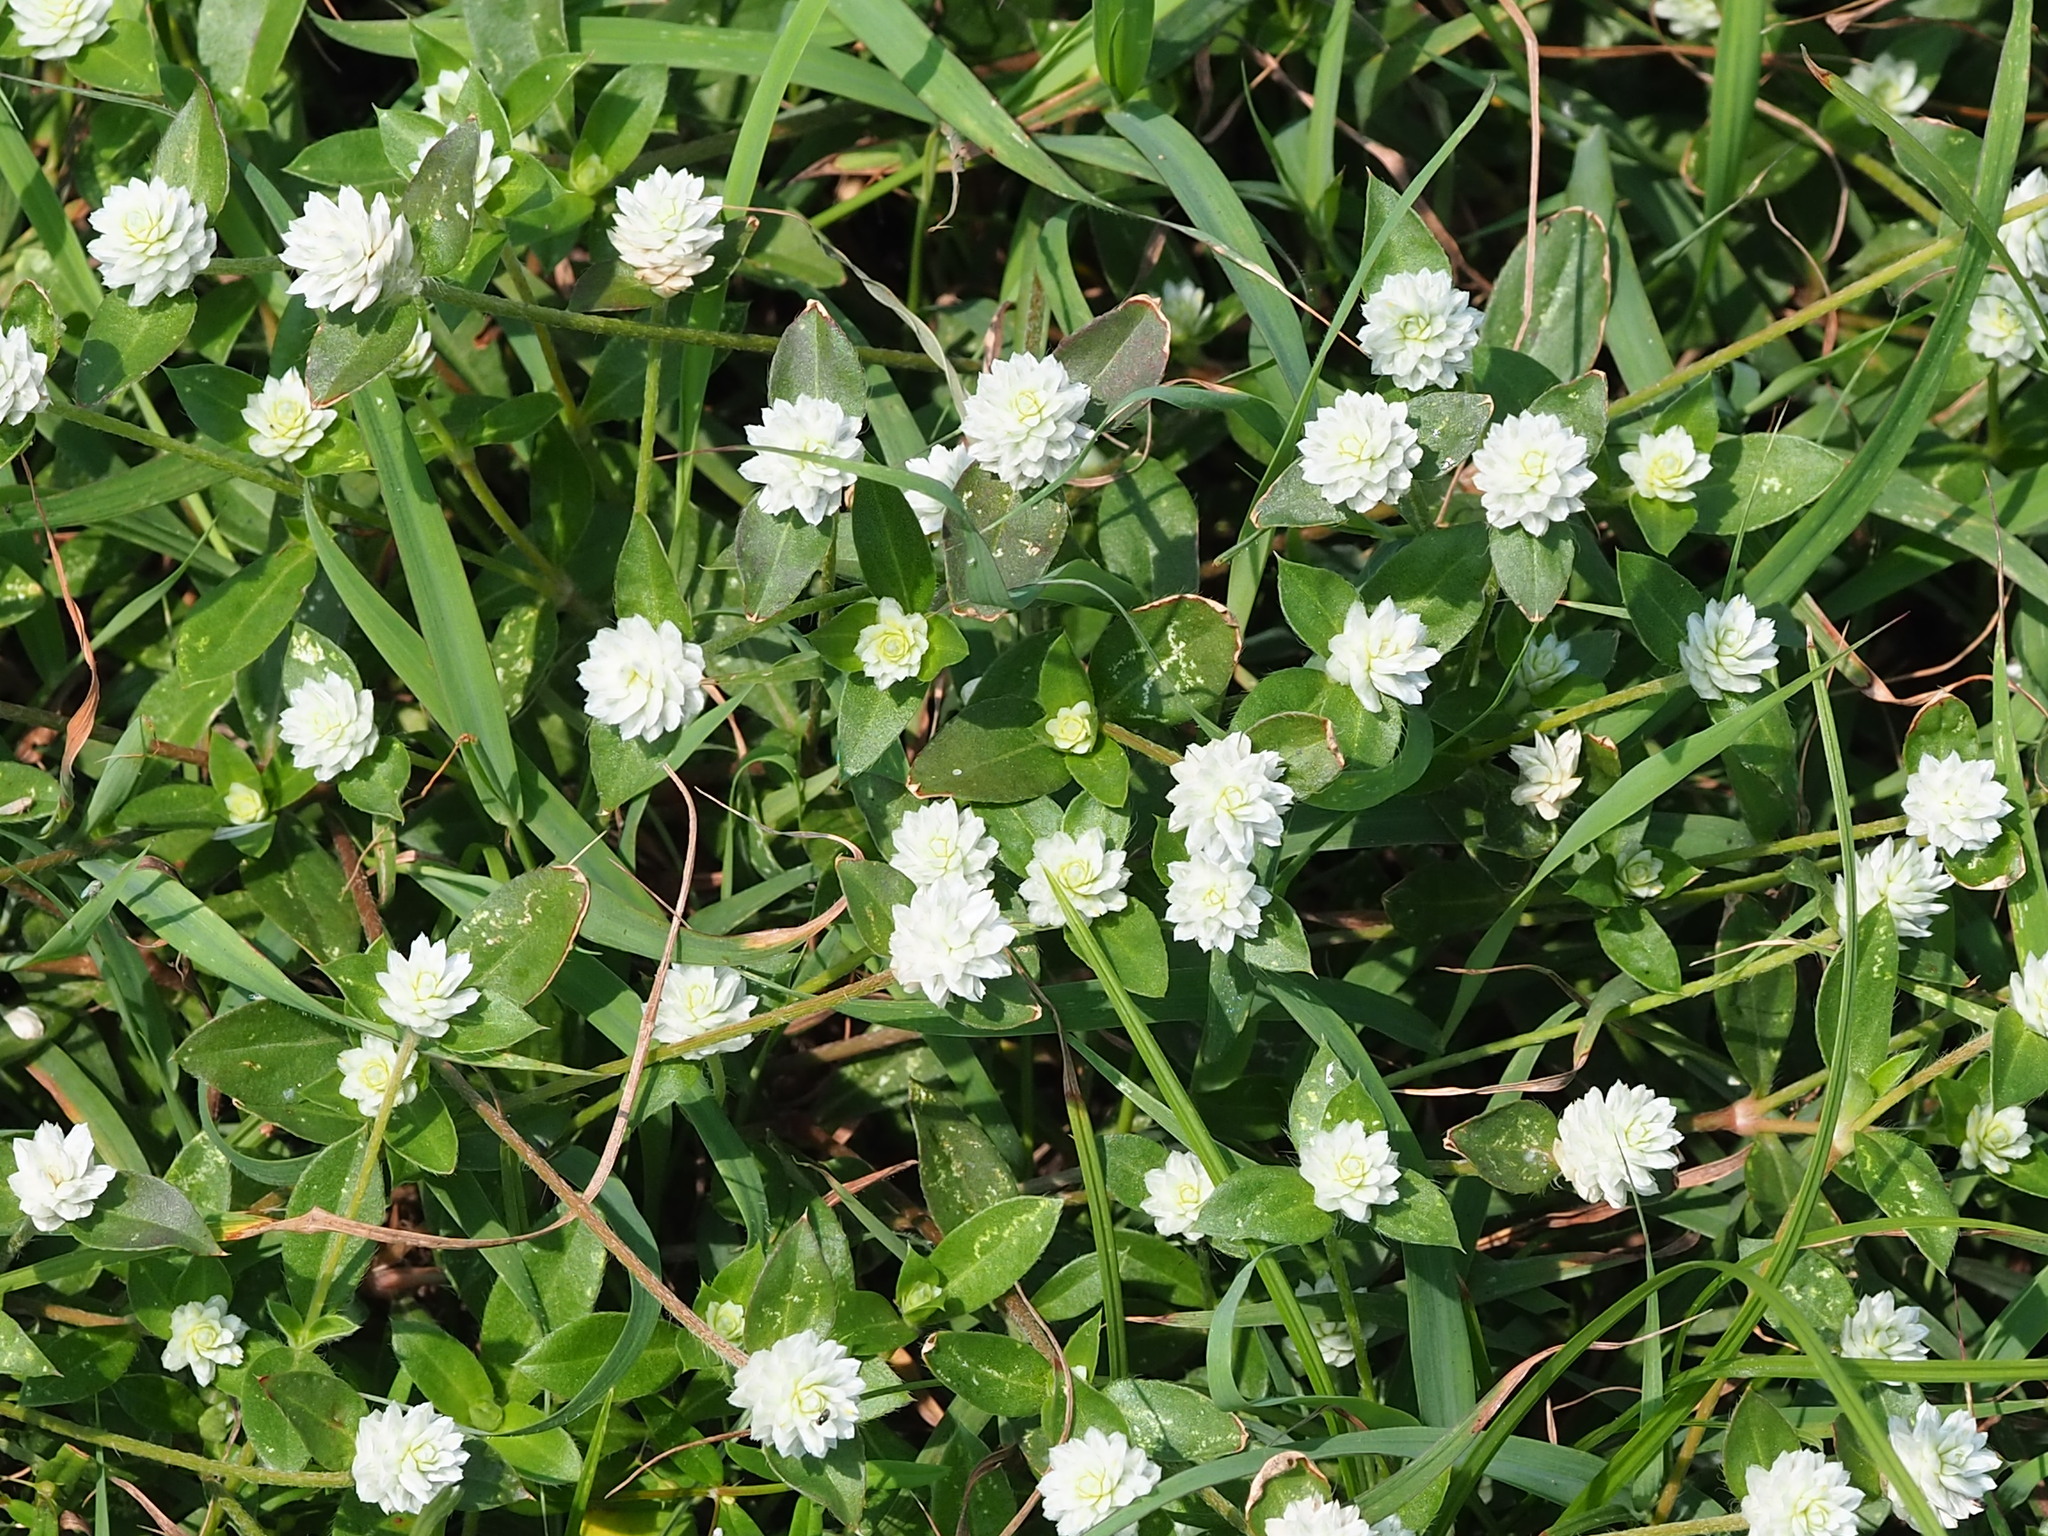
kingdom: Plantae
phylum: Tracheophyta
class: Magnoliopsida
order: Caryophyllales
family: Amaranthaceae
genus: Gomphrena
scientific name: Gomphrena serrata
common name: Arrasa con todo
